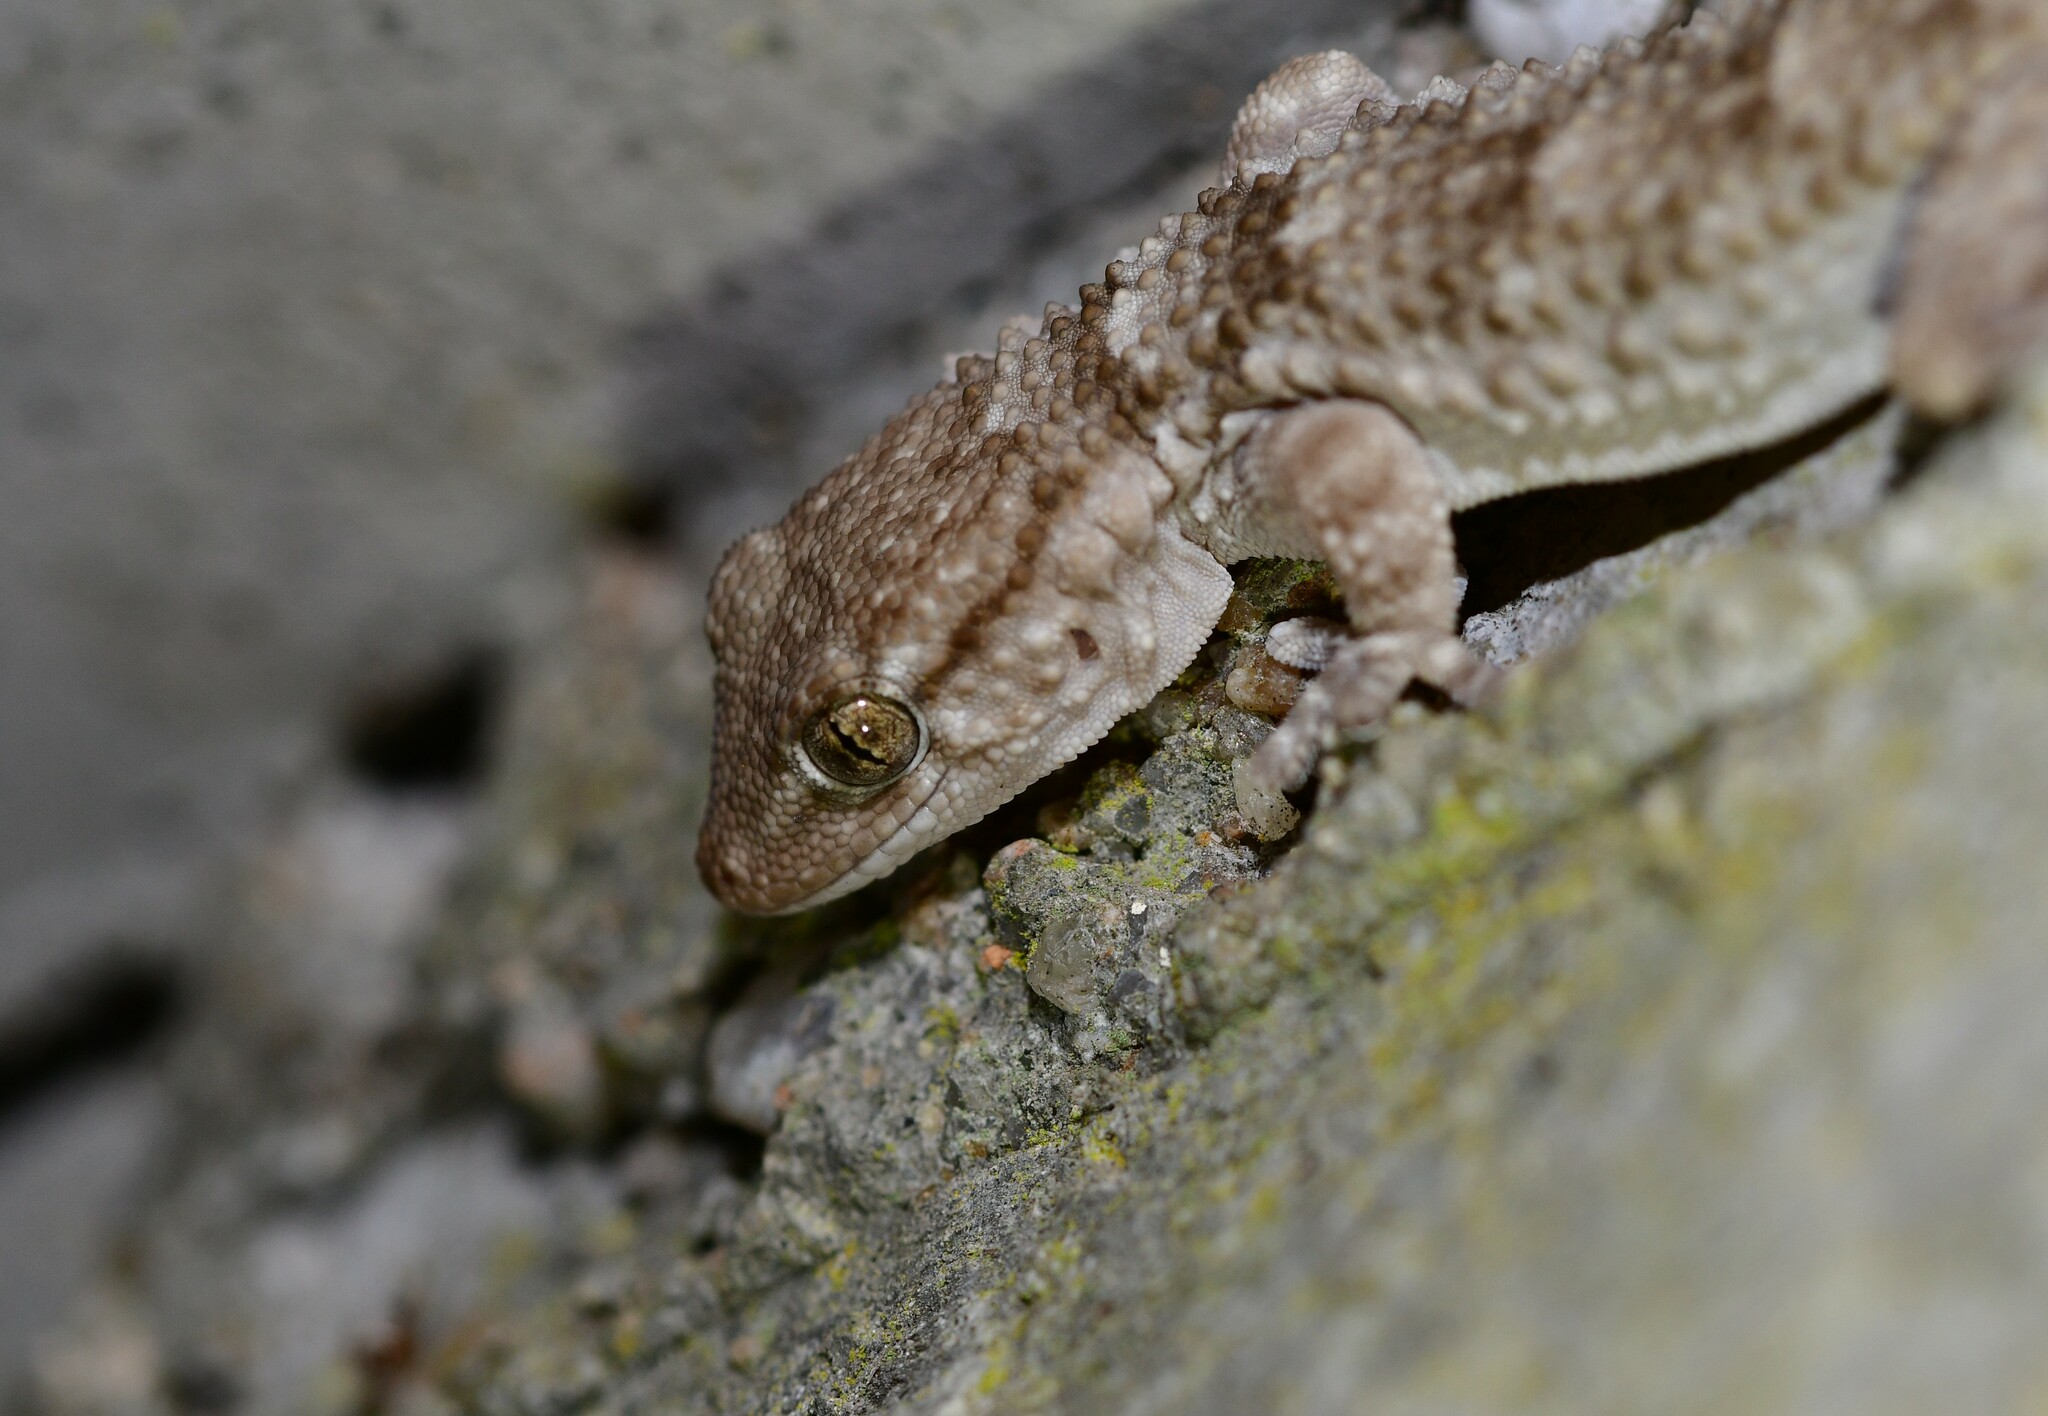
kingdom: Animalia
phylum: Chordata
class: Squamata
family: Phyllodactylidae
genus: Tarentola
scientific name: Tarentola mauritanica
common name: Moorish gecko
